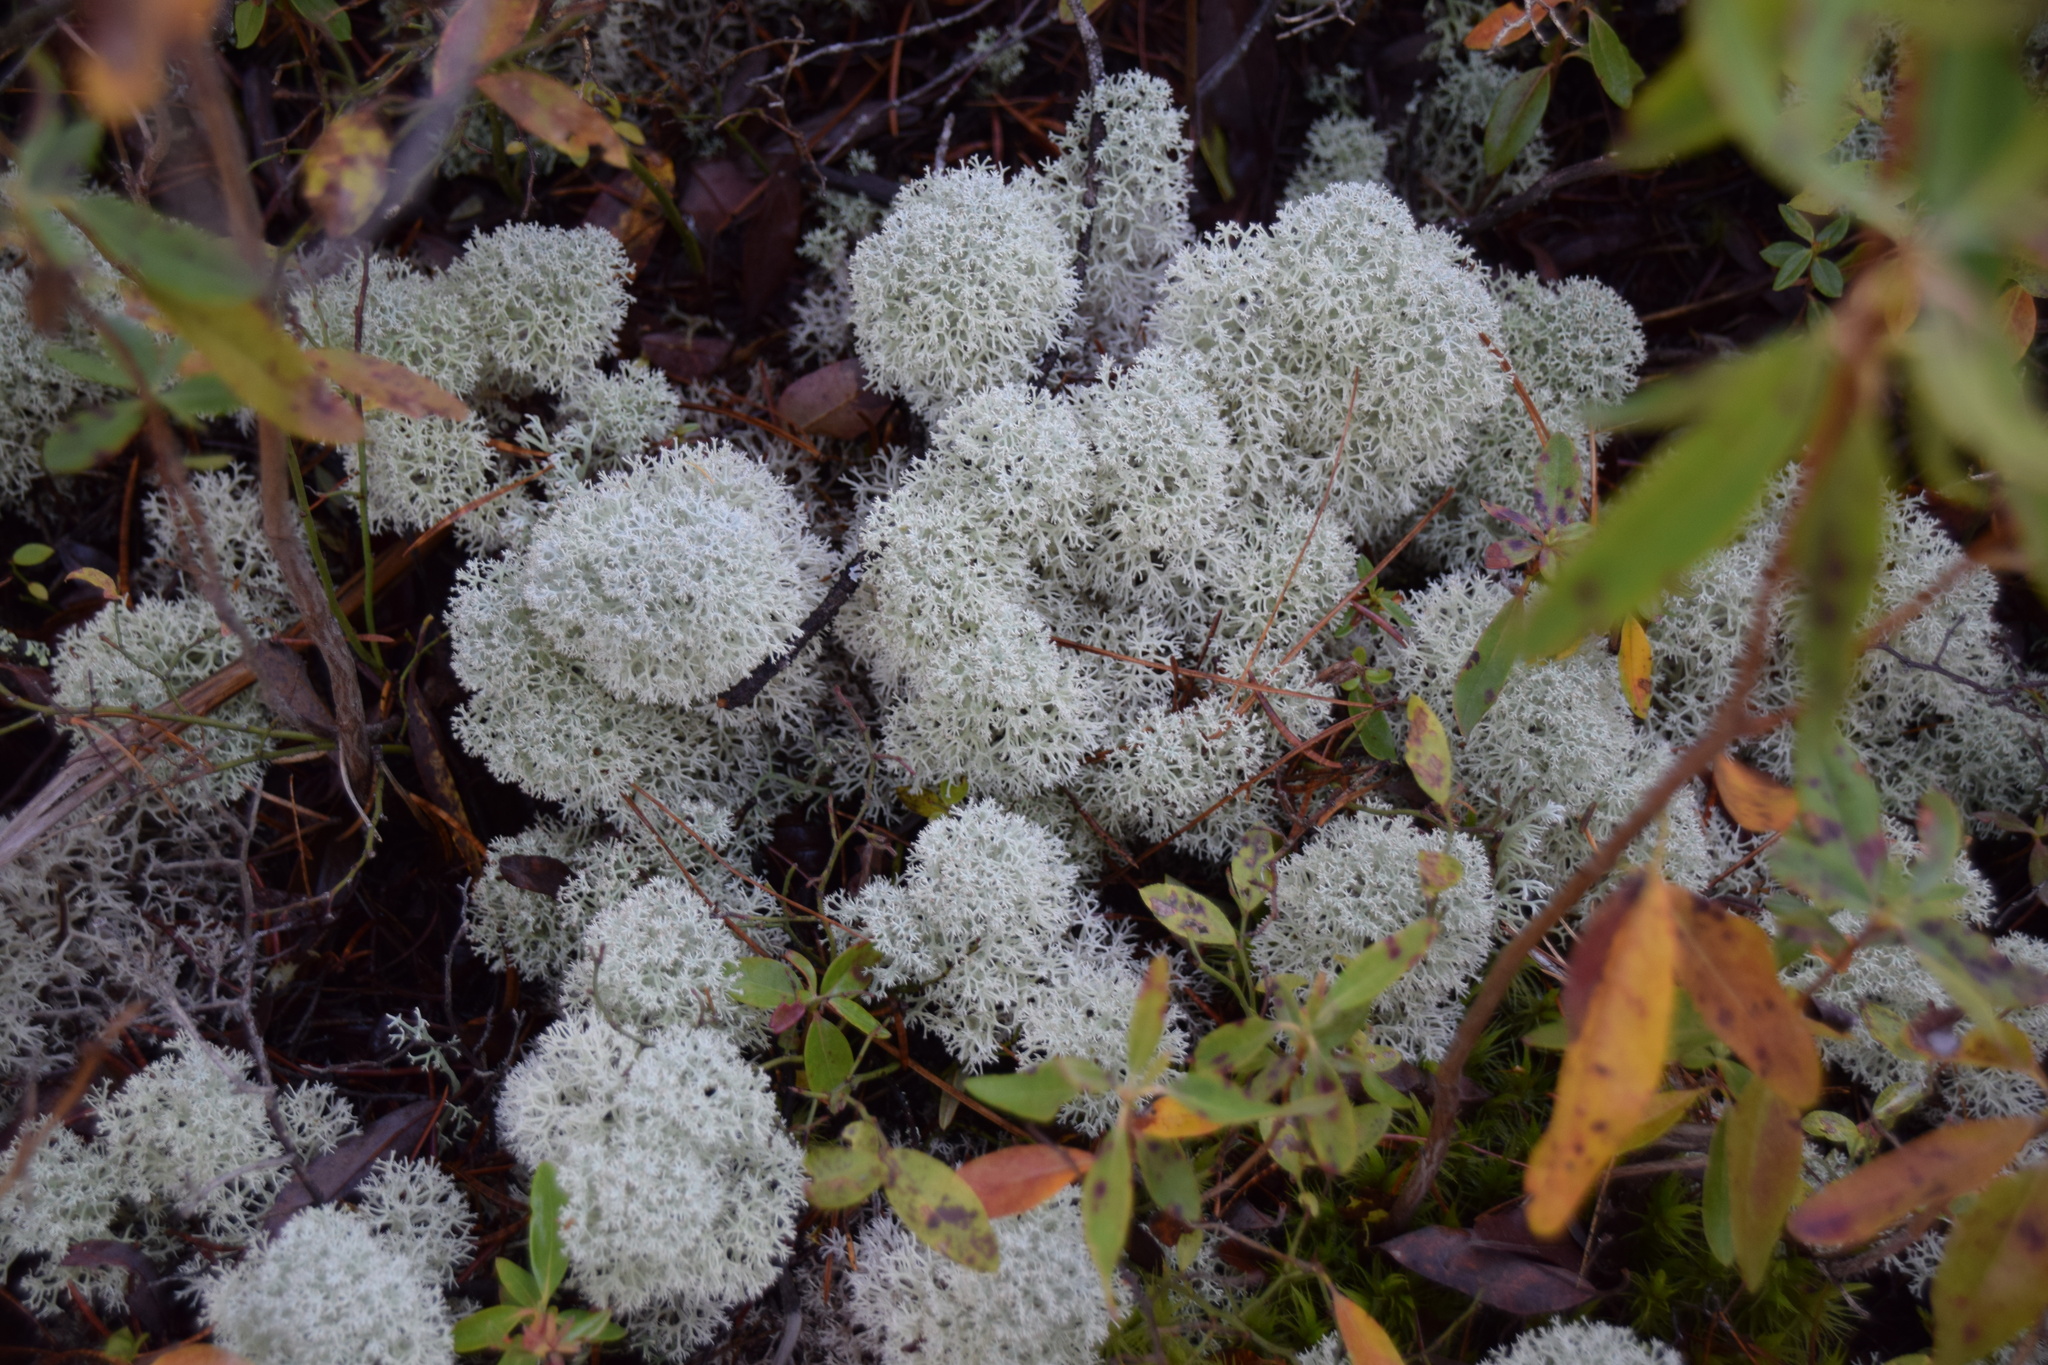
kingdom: Fungi
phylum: Ascomycota
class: Lecanoromycetes
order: Lecanorales
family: Cladoniaceae
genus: Cladonia
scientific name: Cladonia stellaris
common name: Star-tipped reindeer lichen
